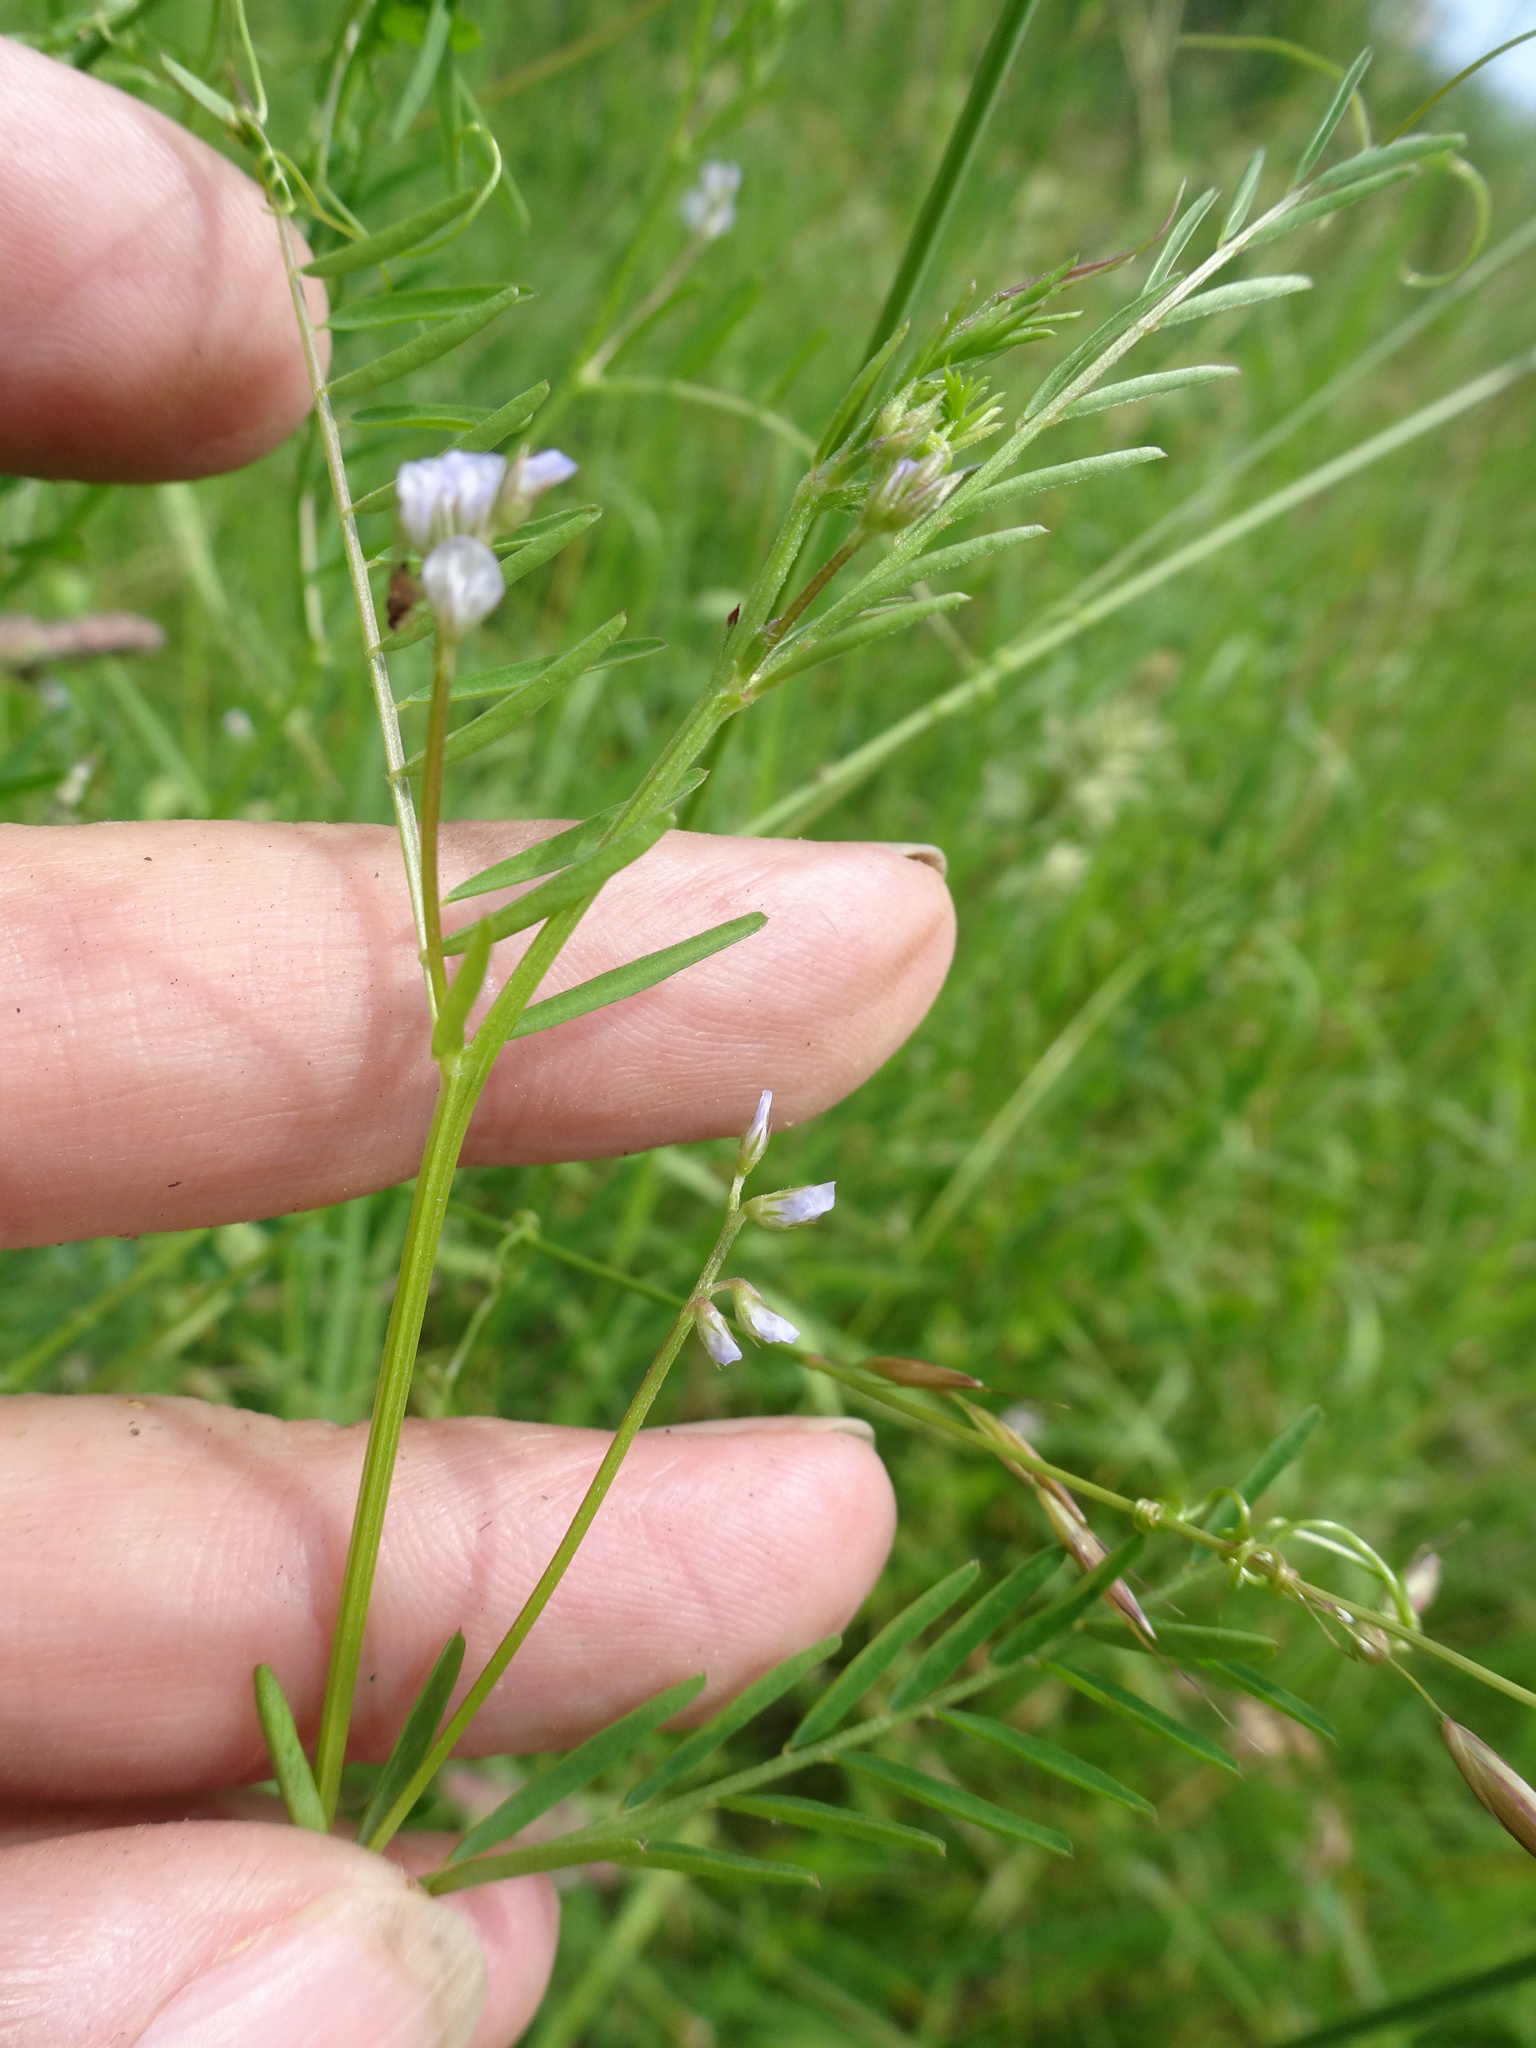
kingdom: Plantae
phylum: Tracheophyta
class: Magnoliopsida
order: Fabales
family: Fabaceae
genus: Vicia
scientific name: Vicia hirsuta
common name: Tiny vetch
